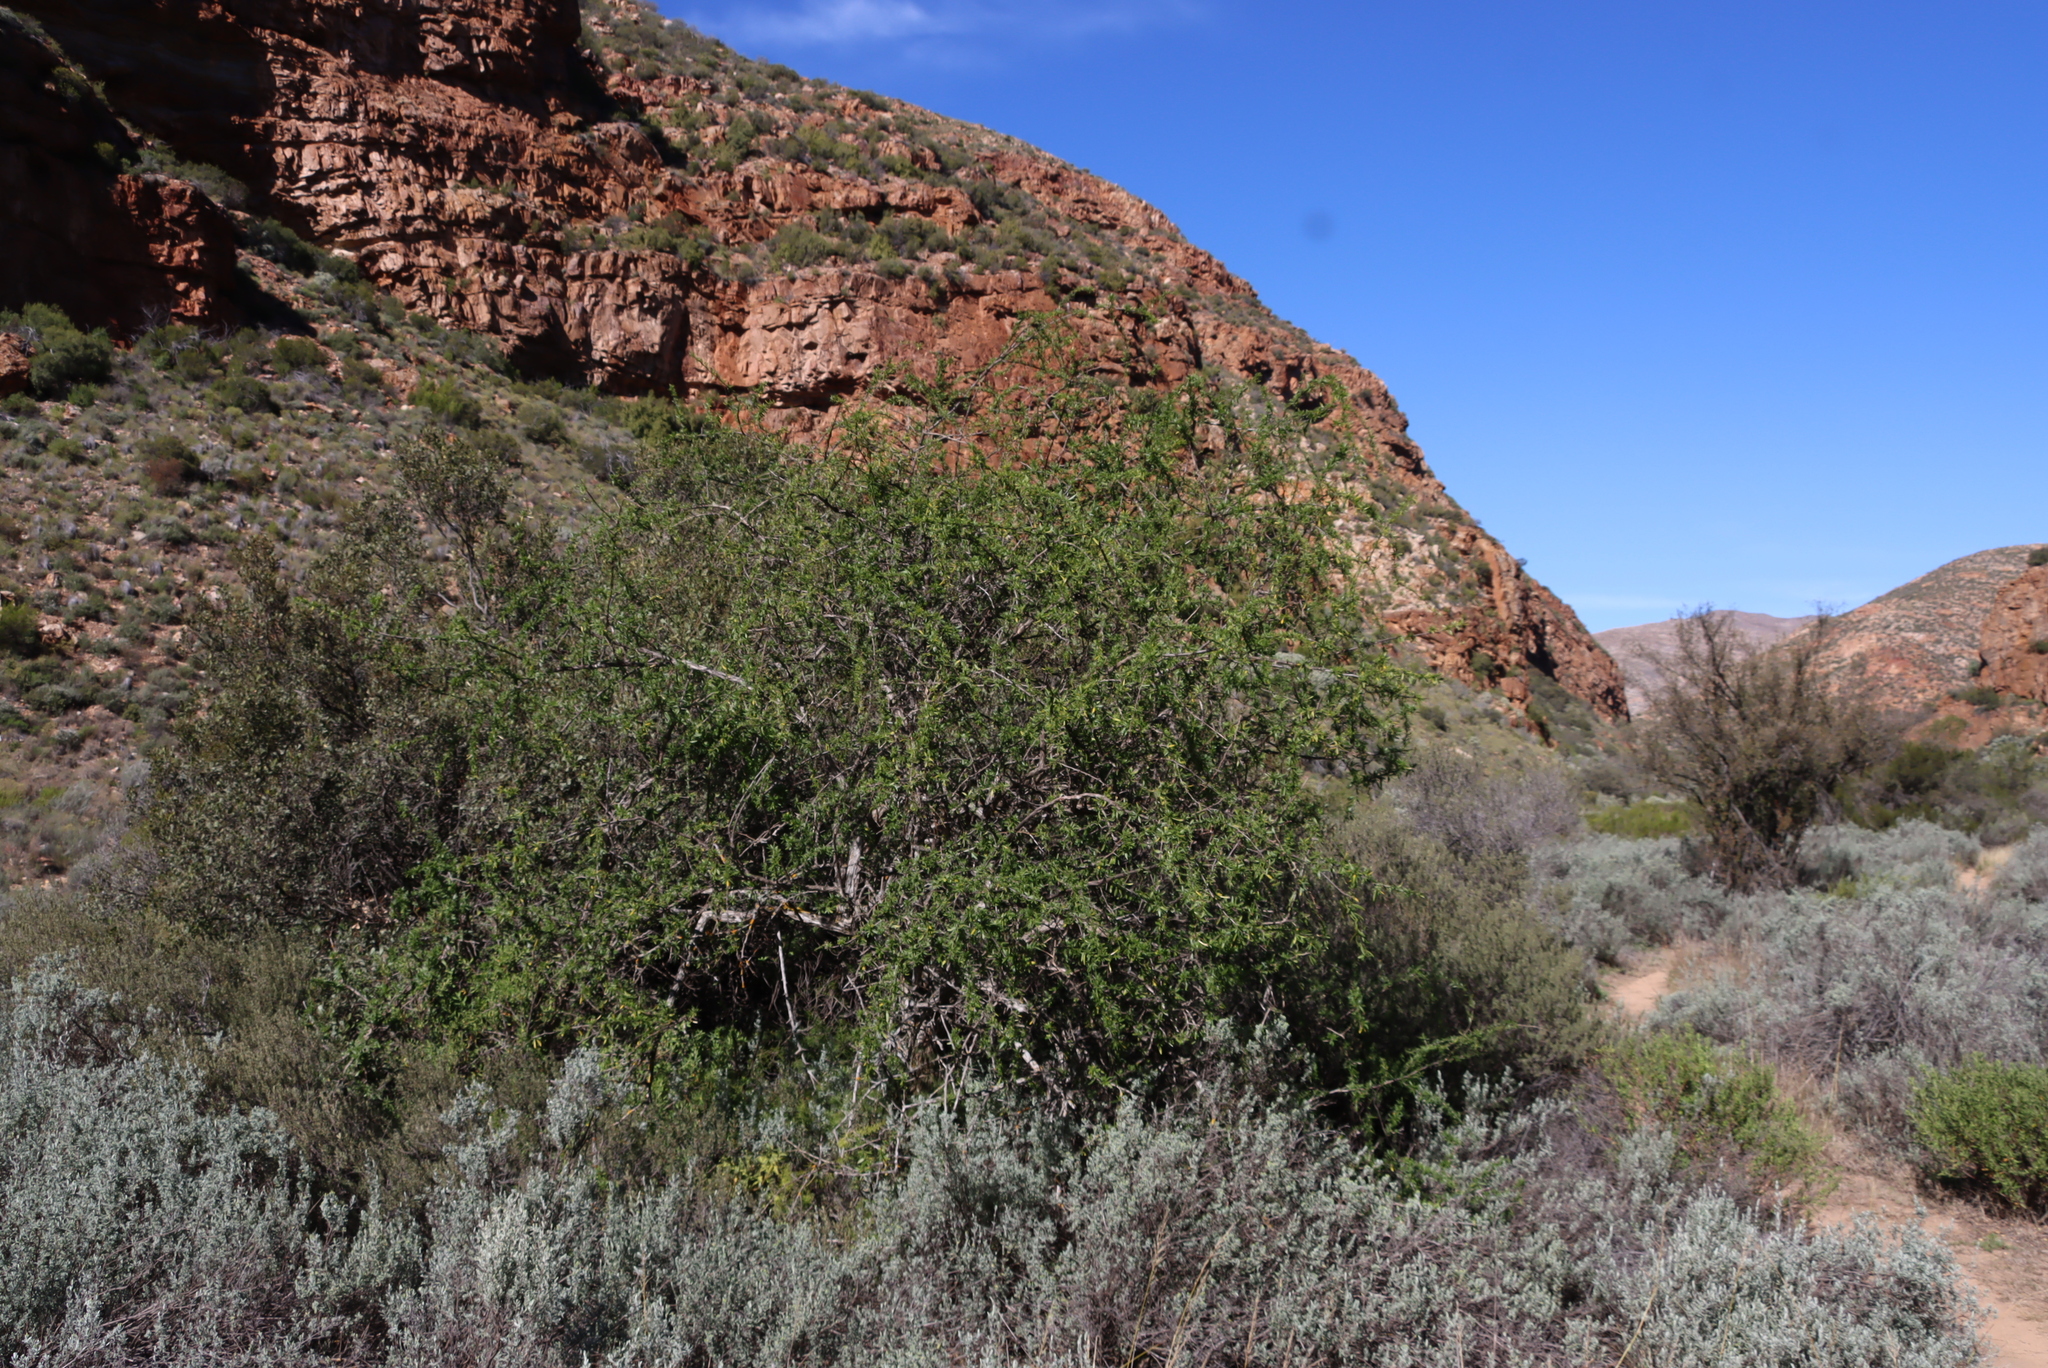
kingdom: Plantae
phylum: Tracheophyta
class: Magnoliopsida
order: Solanales
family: Solanaceae
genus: Lycium
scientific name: Lycium oxycarpum
